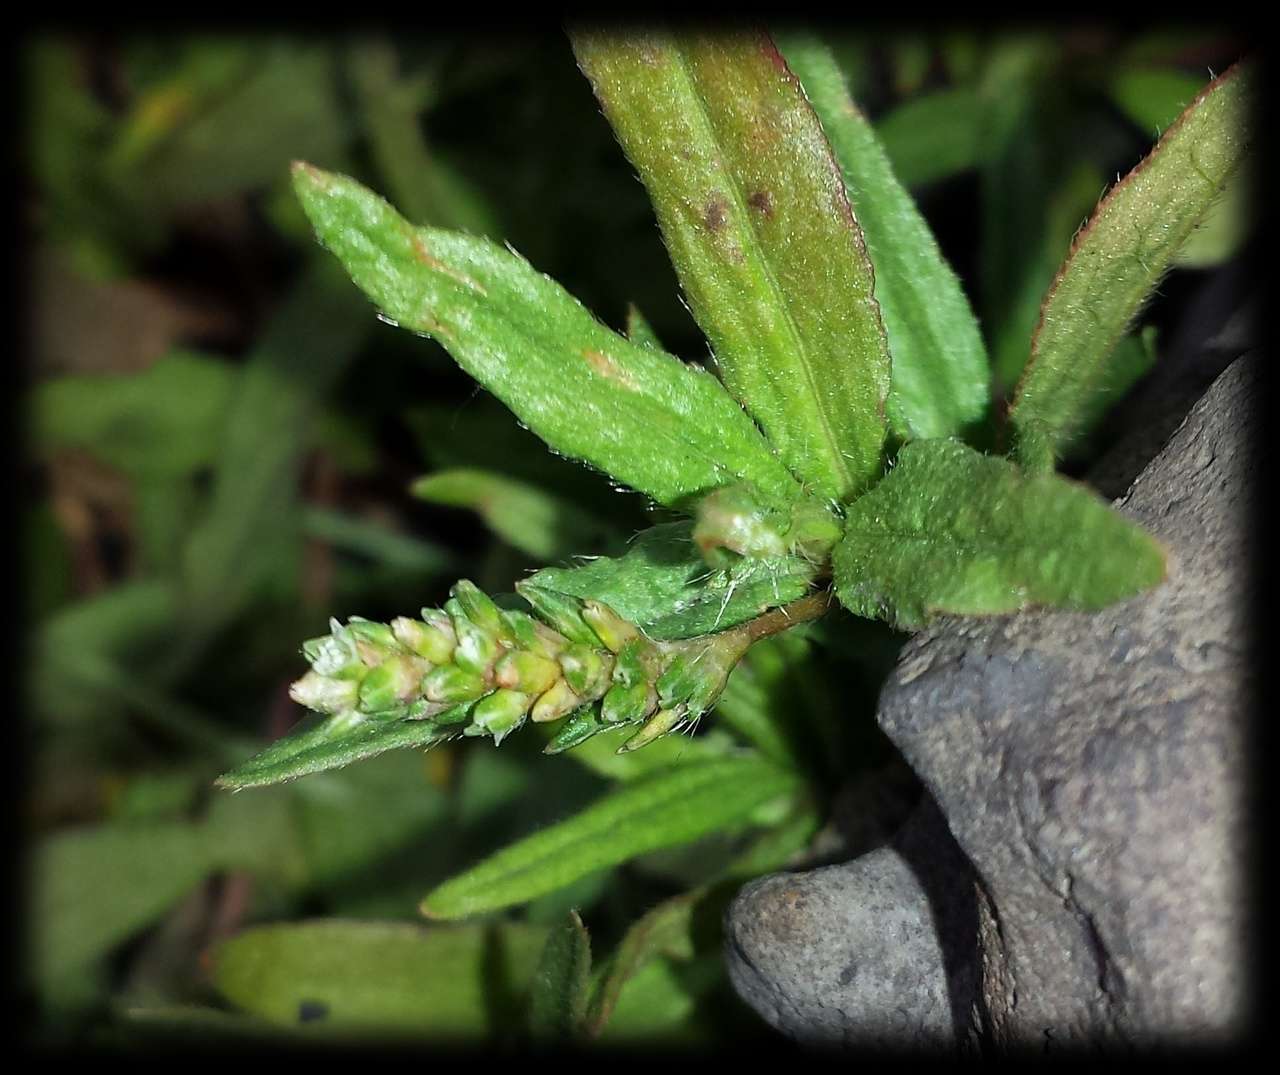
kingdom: Plantae
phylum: Tracheophyta
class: Magnoliopsida
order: Caryophyllales
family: Polygonaceae
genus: Persicaria
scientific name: Persicaria prostrata
